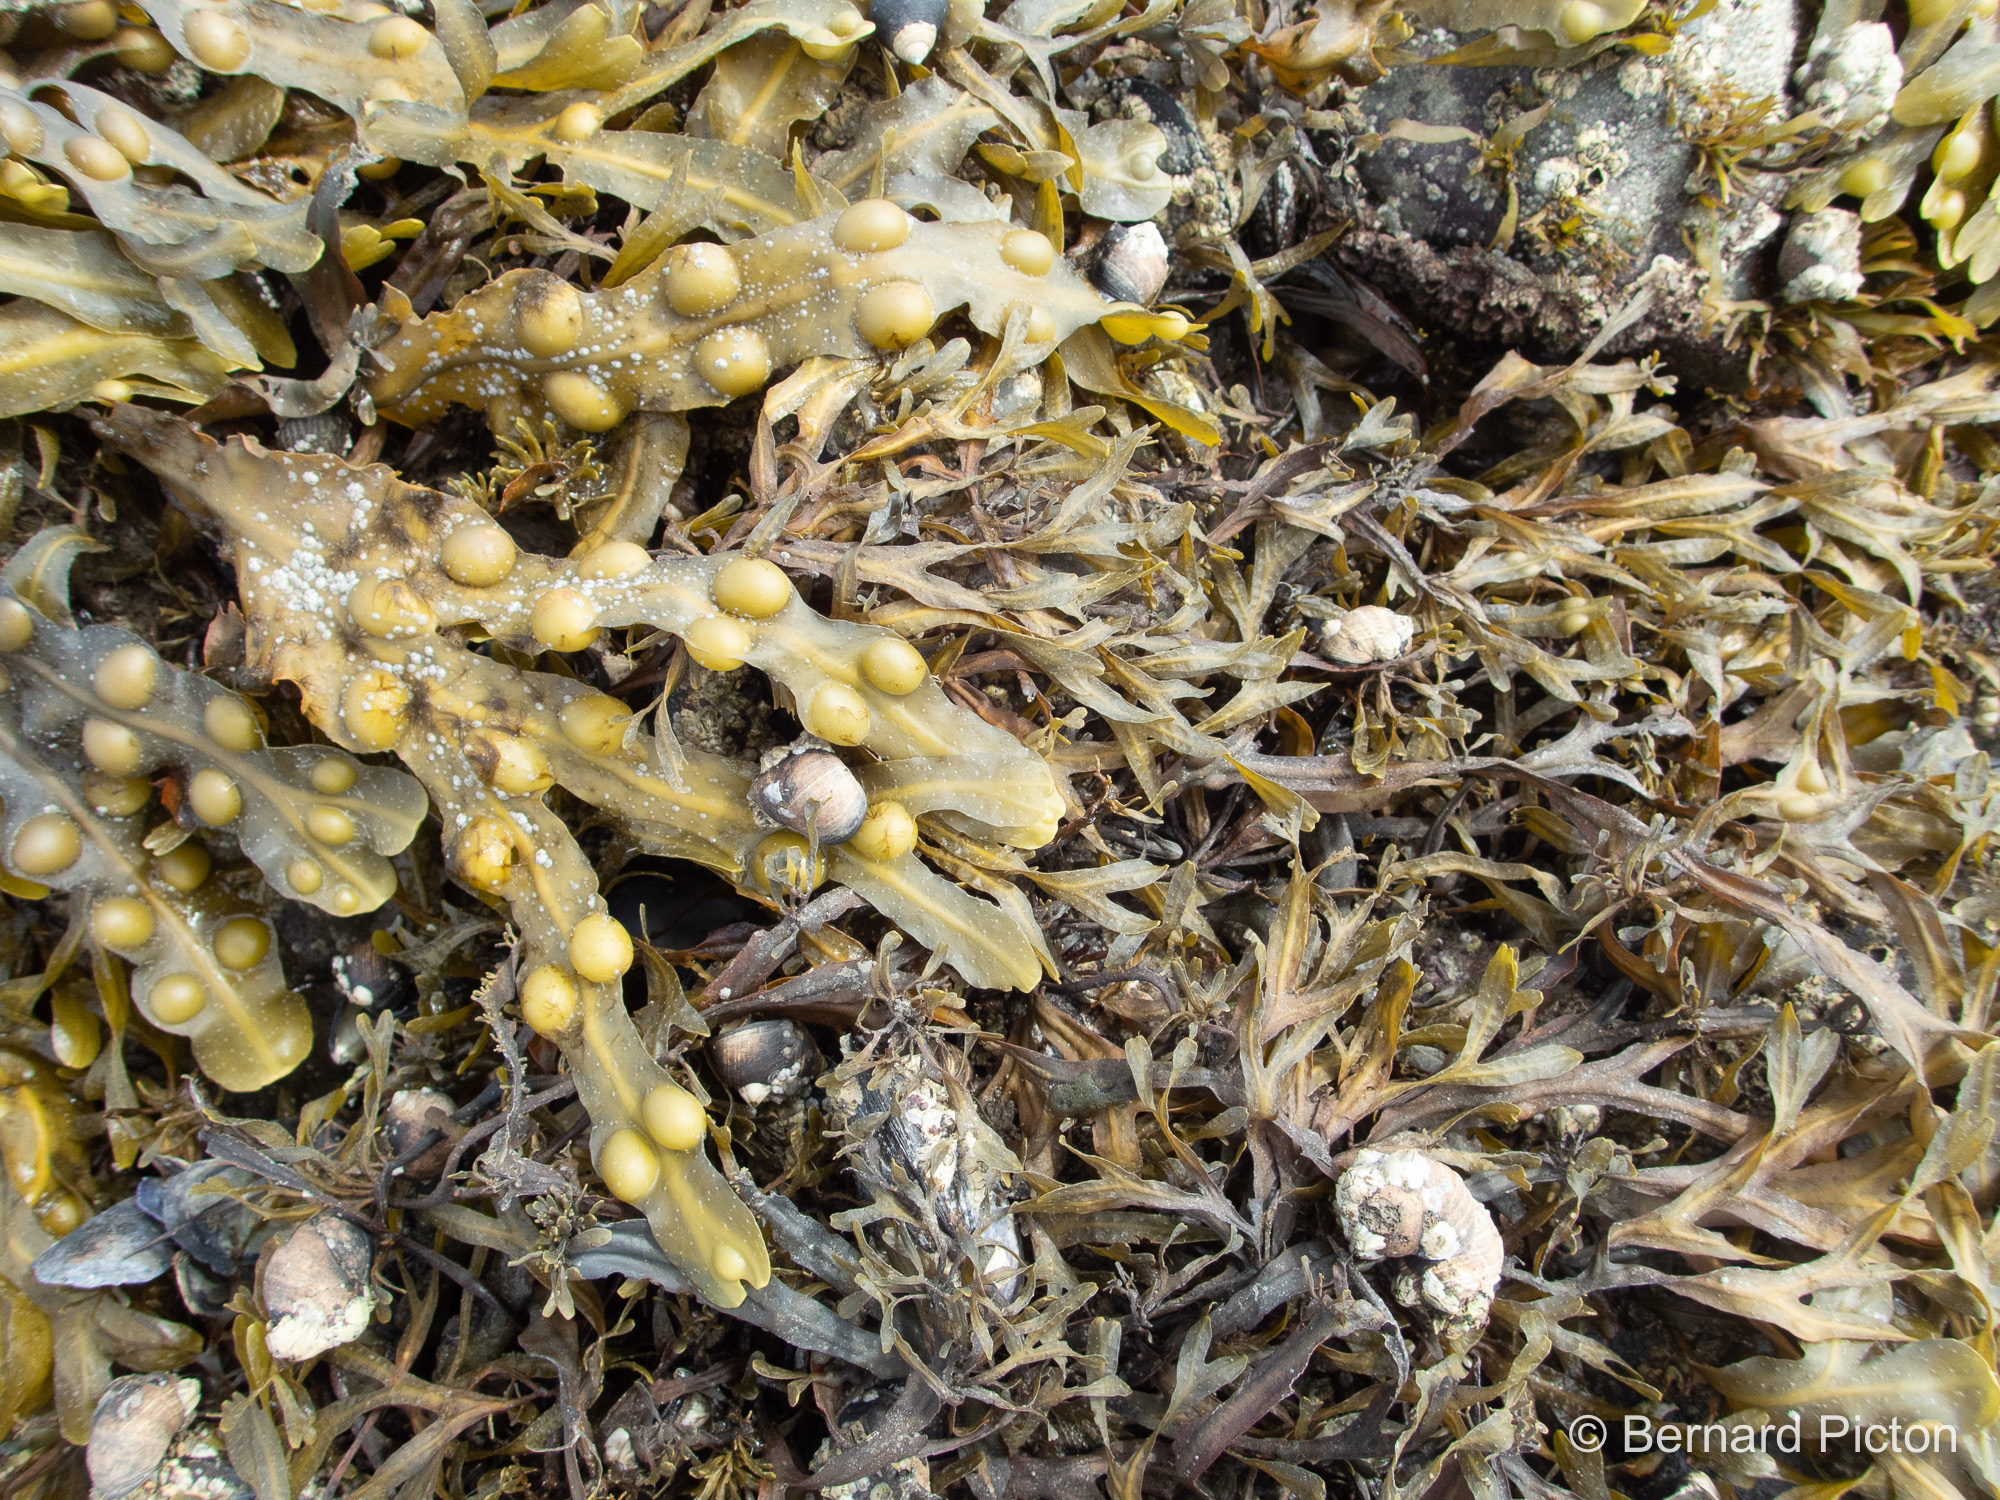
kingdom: Chromista
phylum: Ochrophyta
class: Phaeophyceae
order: Fucales
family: Fucaceae
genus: Fucus
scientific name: Fucus vesiculosus
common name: Bladder wrack
